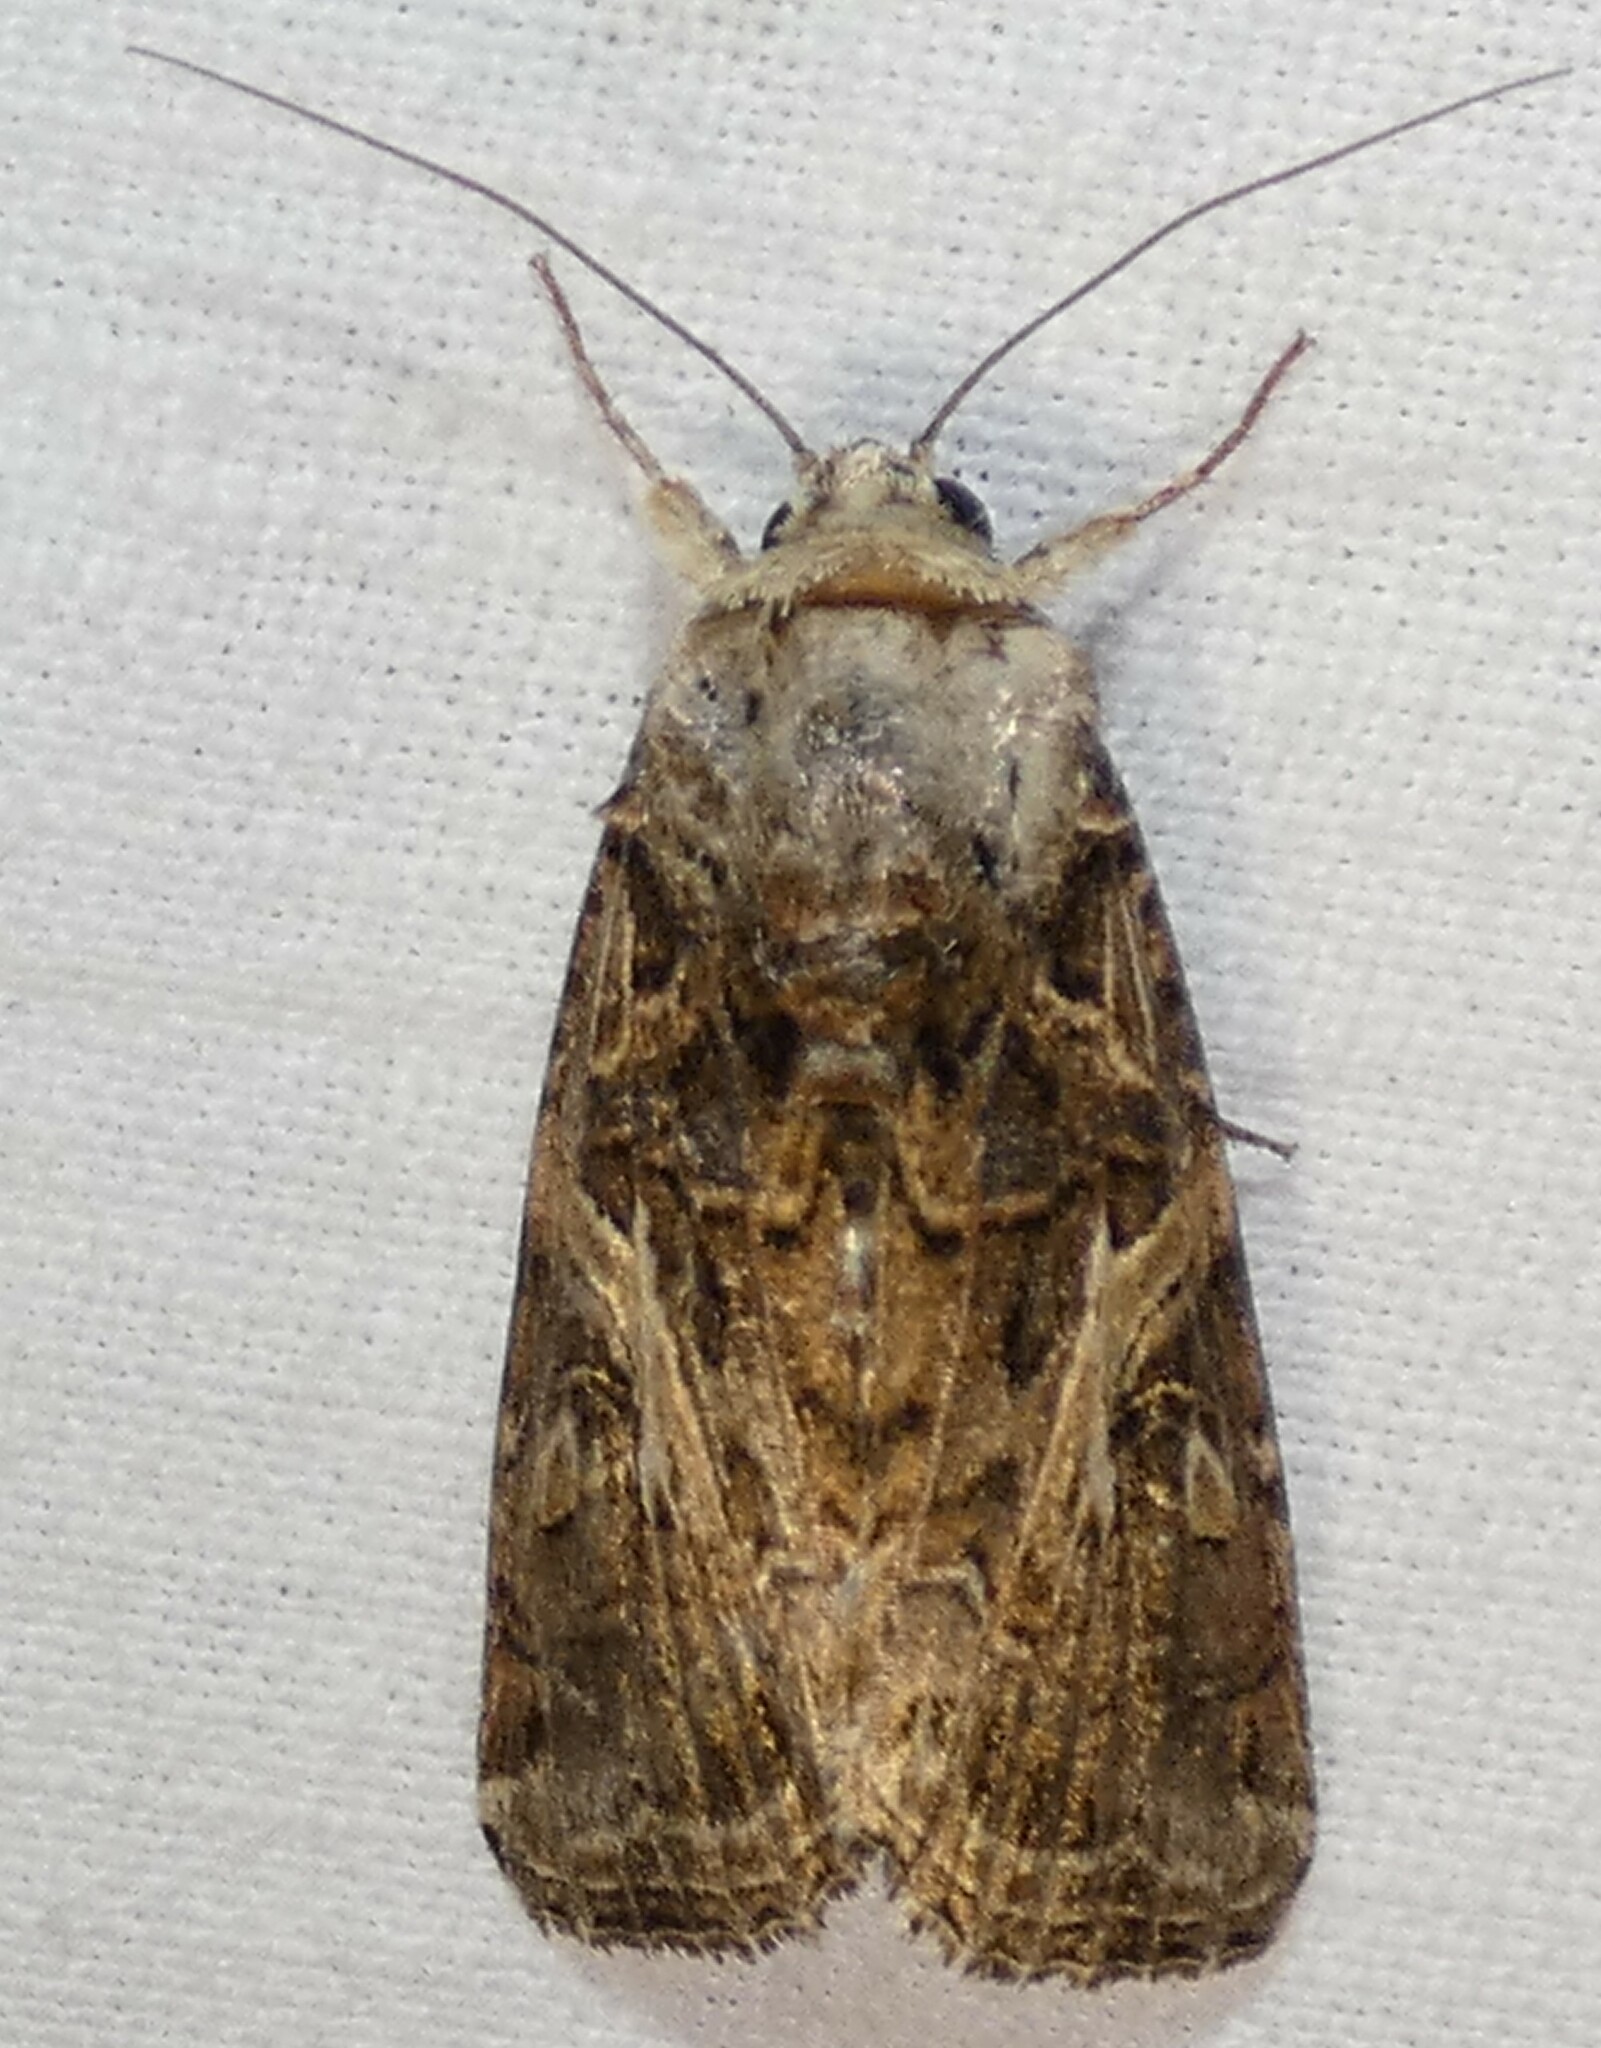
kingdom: Animalia
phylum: Arthropoda
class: Insecta
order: Lepidoptera
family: Noctuidae
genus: Spodoptera
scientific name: Spodoptera ornithogalli
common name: Yellow-striped armyworm
